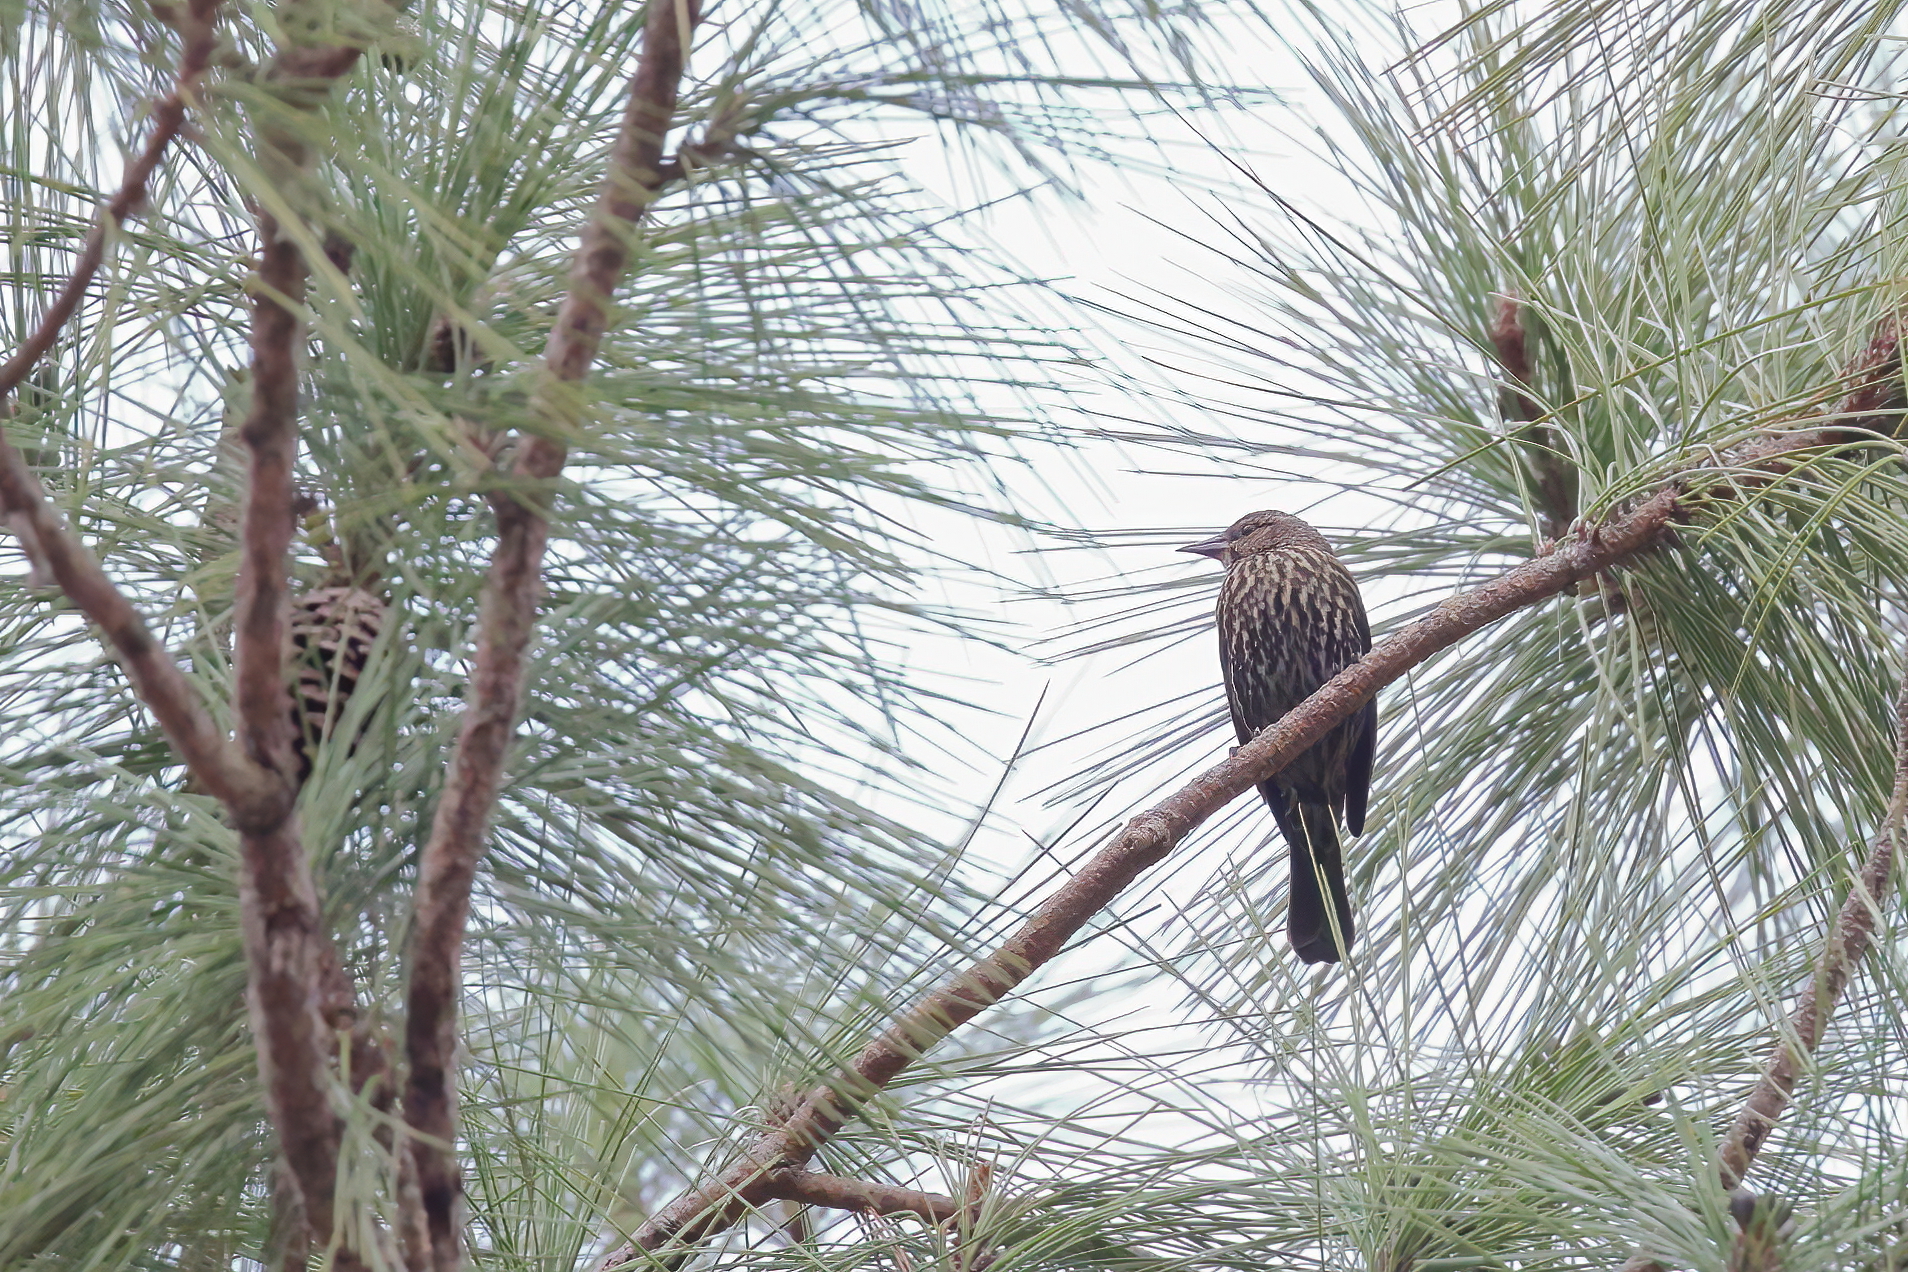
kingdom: Animalia
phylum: Chordata
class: Aves
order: Passeriformes
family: Icteridae
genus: Agelaius
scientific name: Agelaius phoeniceus
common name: Red-winged blackbird
